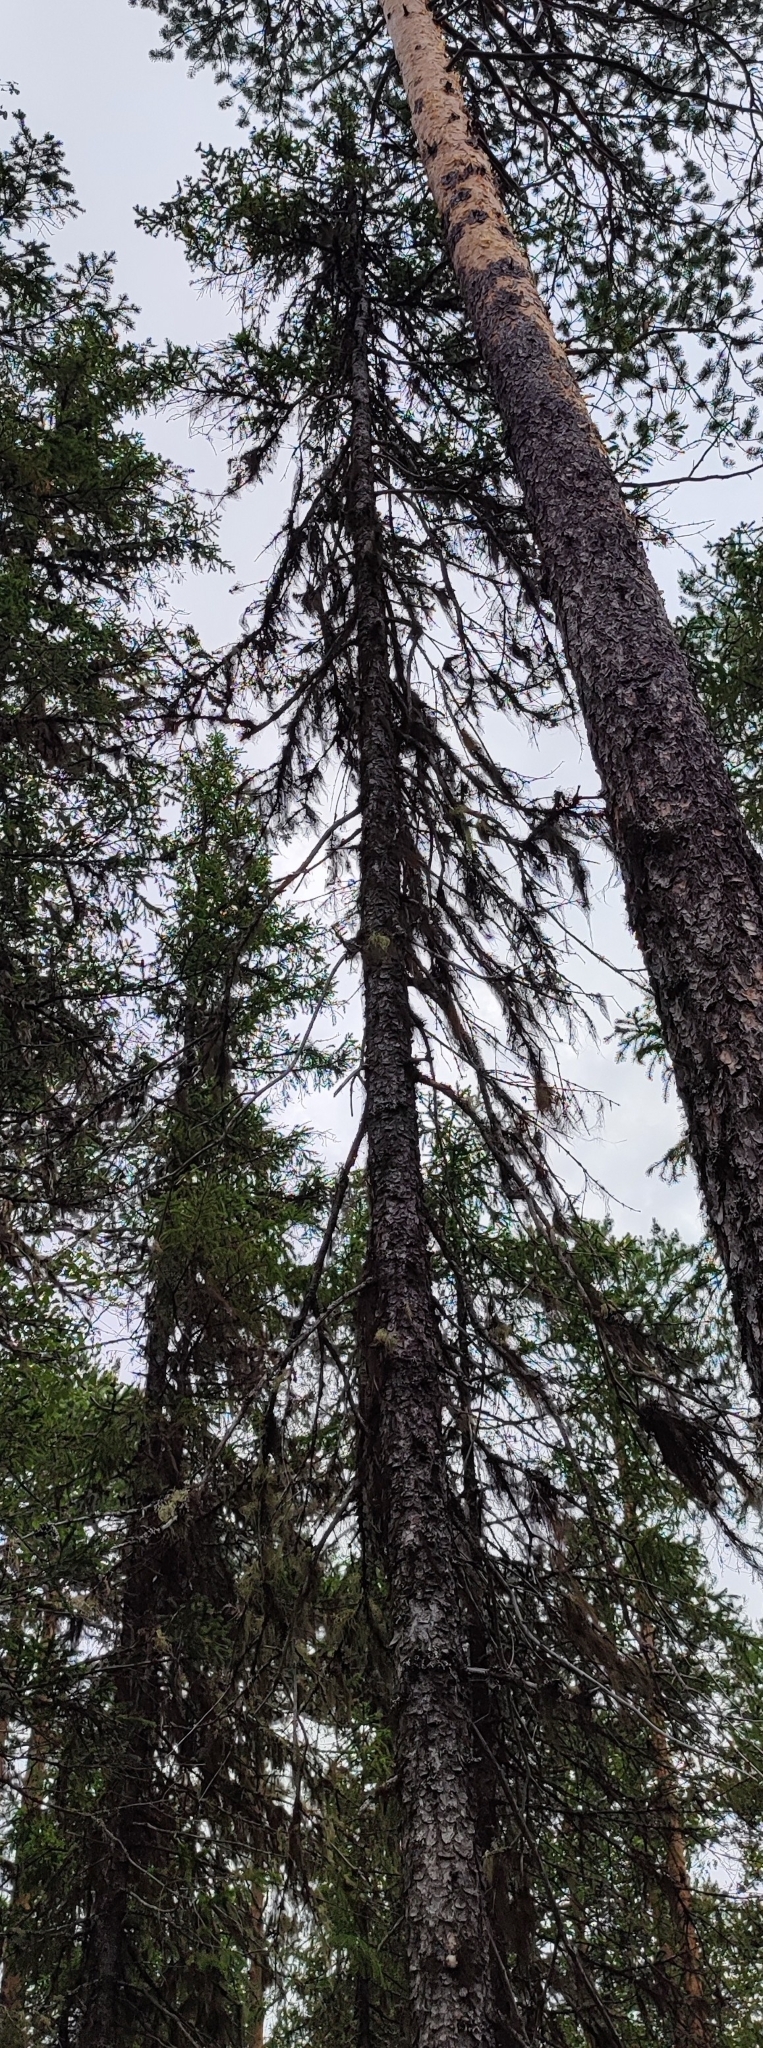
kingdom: Plantae
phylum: Tracheophyta
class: Pinopsida
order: Pinales
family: Pinaceae
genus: Picea
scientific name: Picea obovata
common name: Siberian spruce
